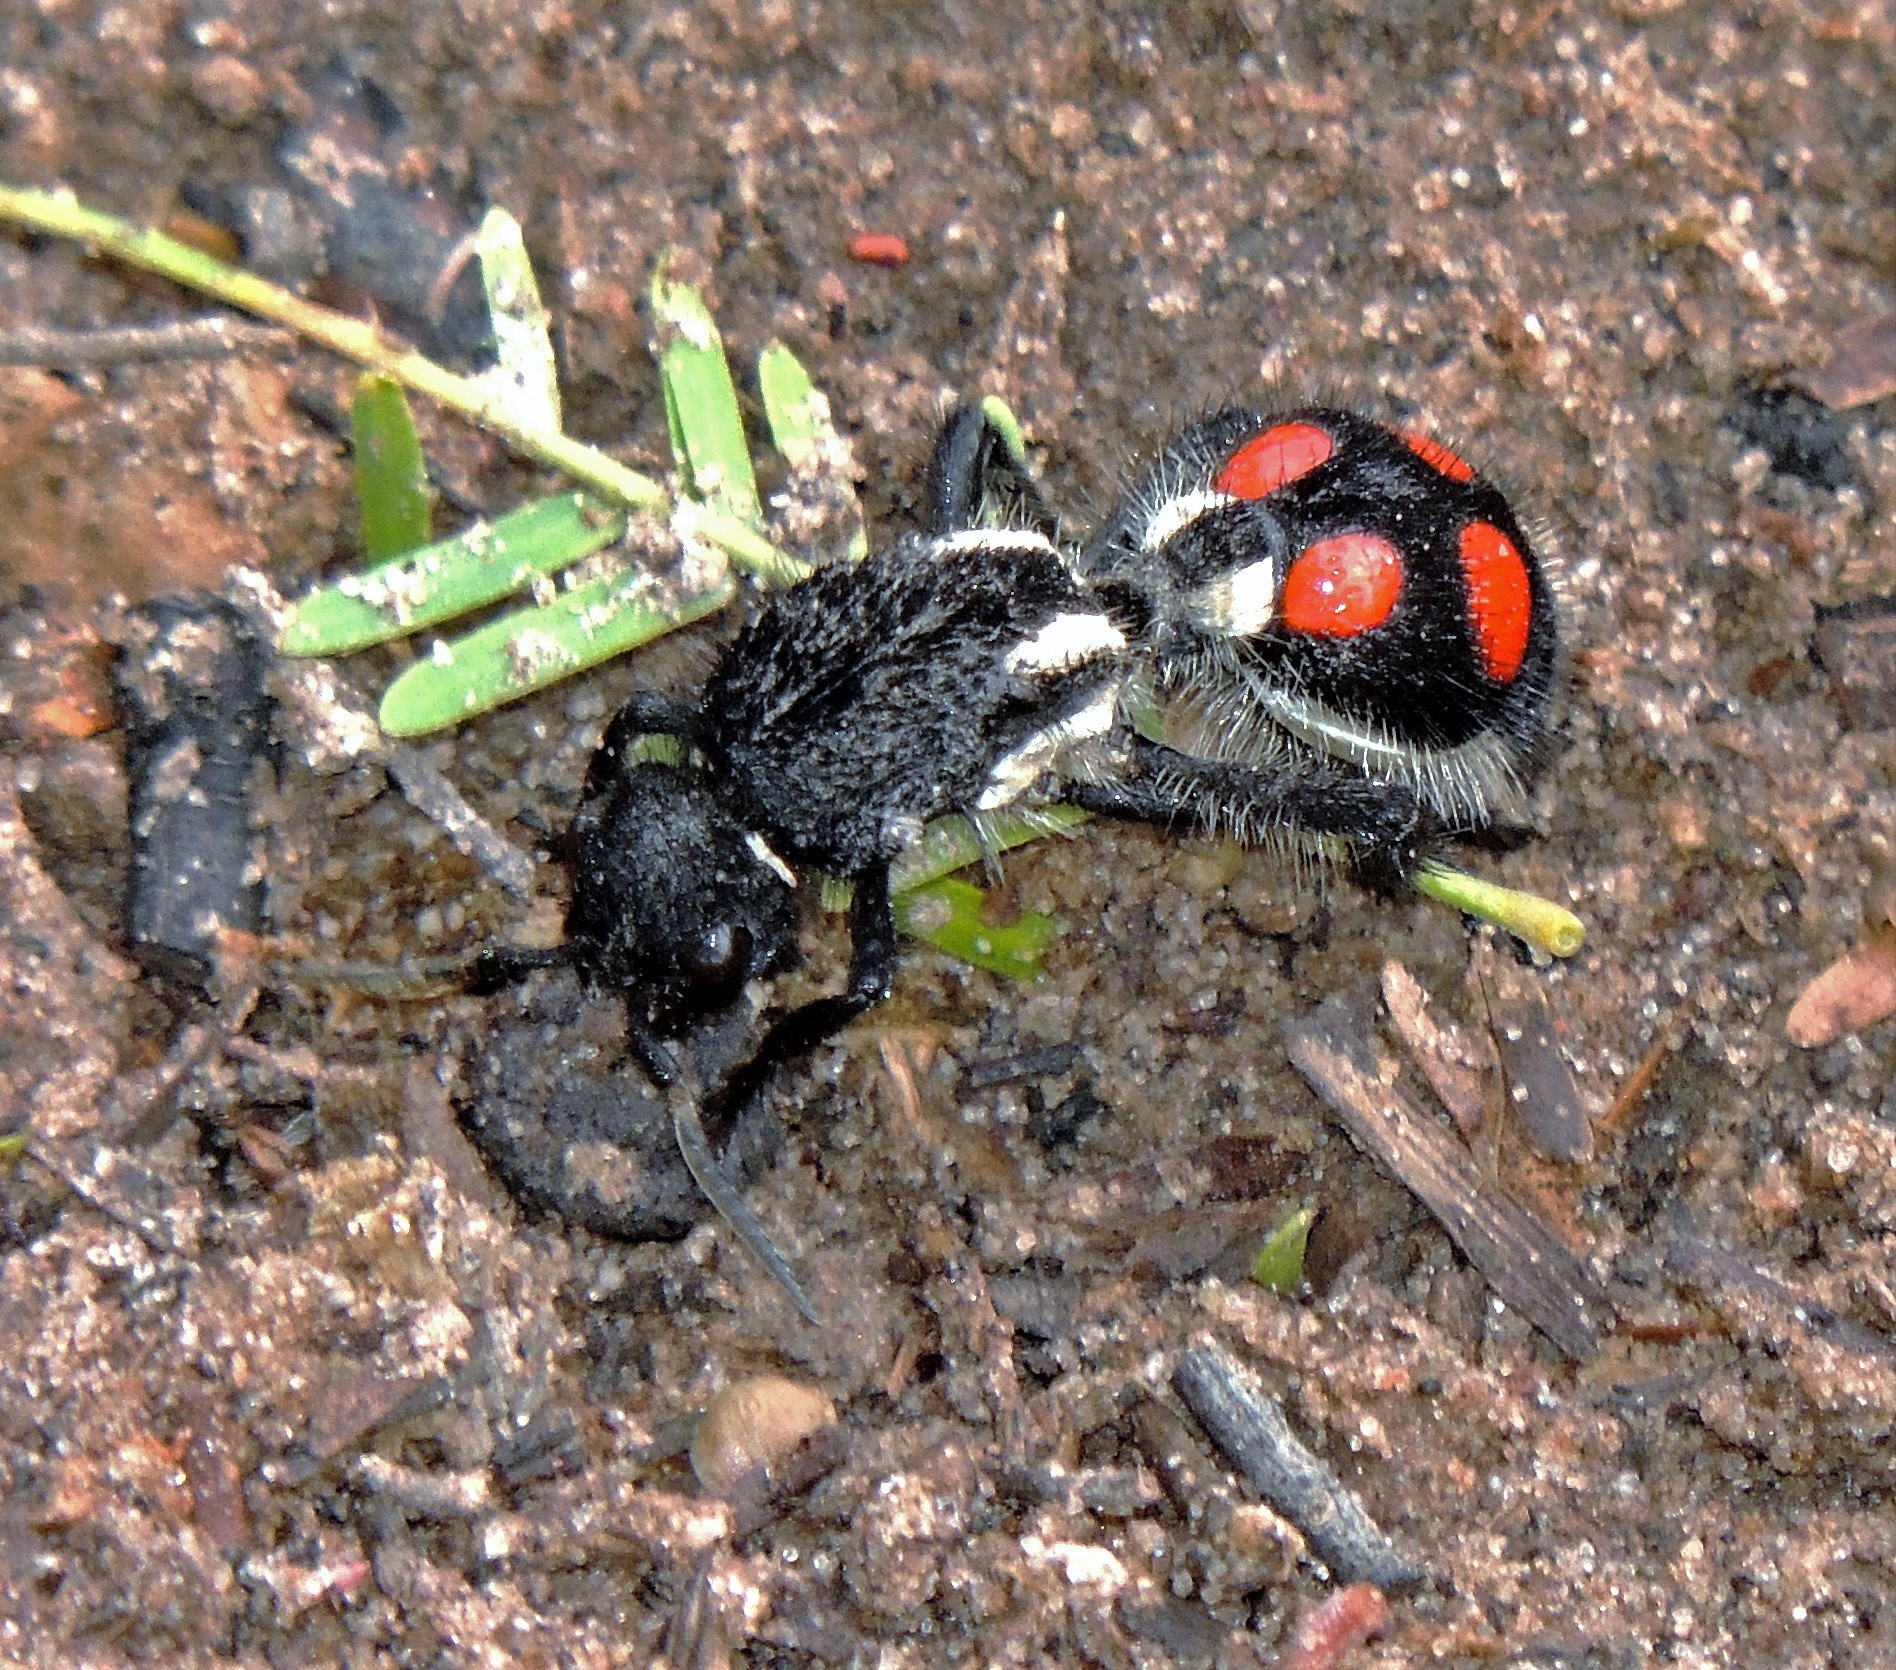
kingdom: Animalia
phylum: Arthropoda
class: Insecta
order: Hymenoptera
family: Mutillidae
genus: Traumatomutilla
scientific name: Traumatomutilla
